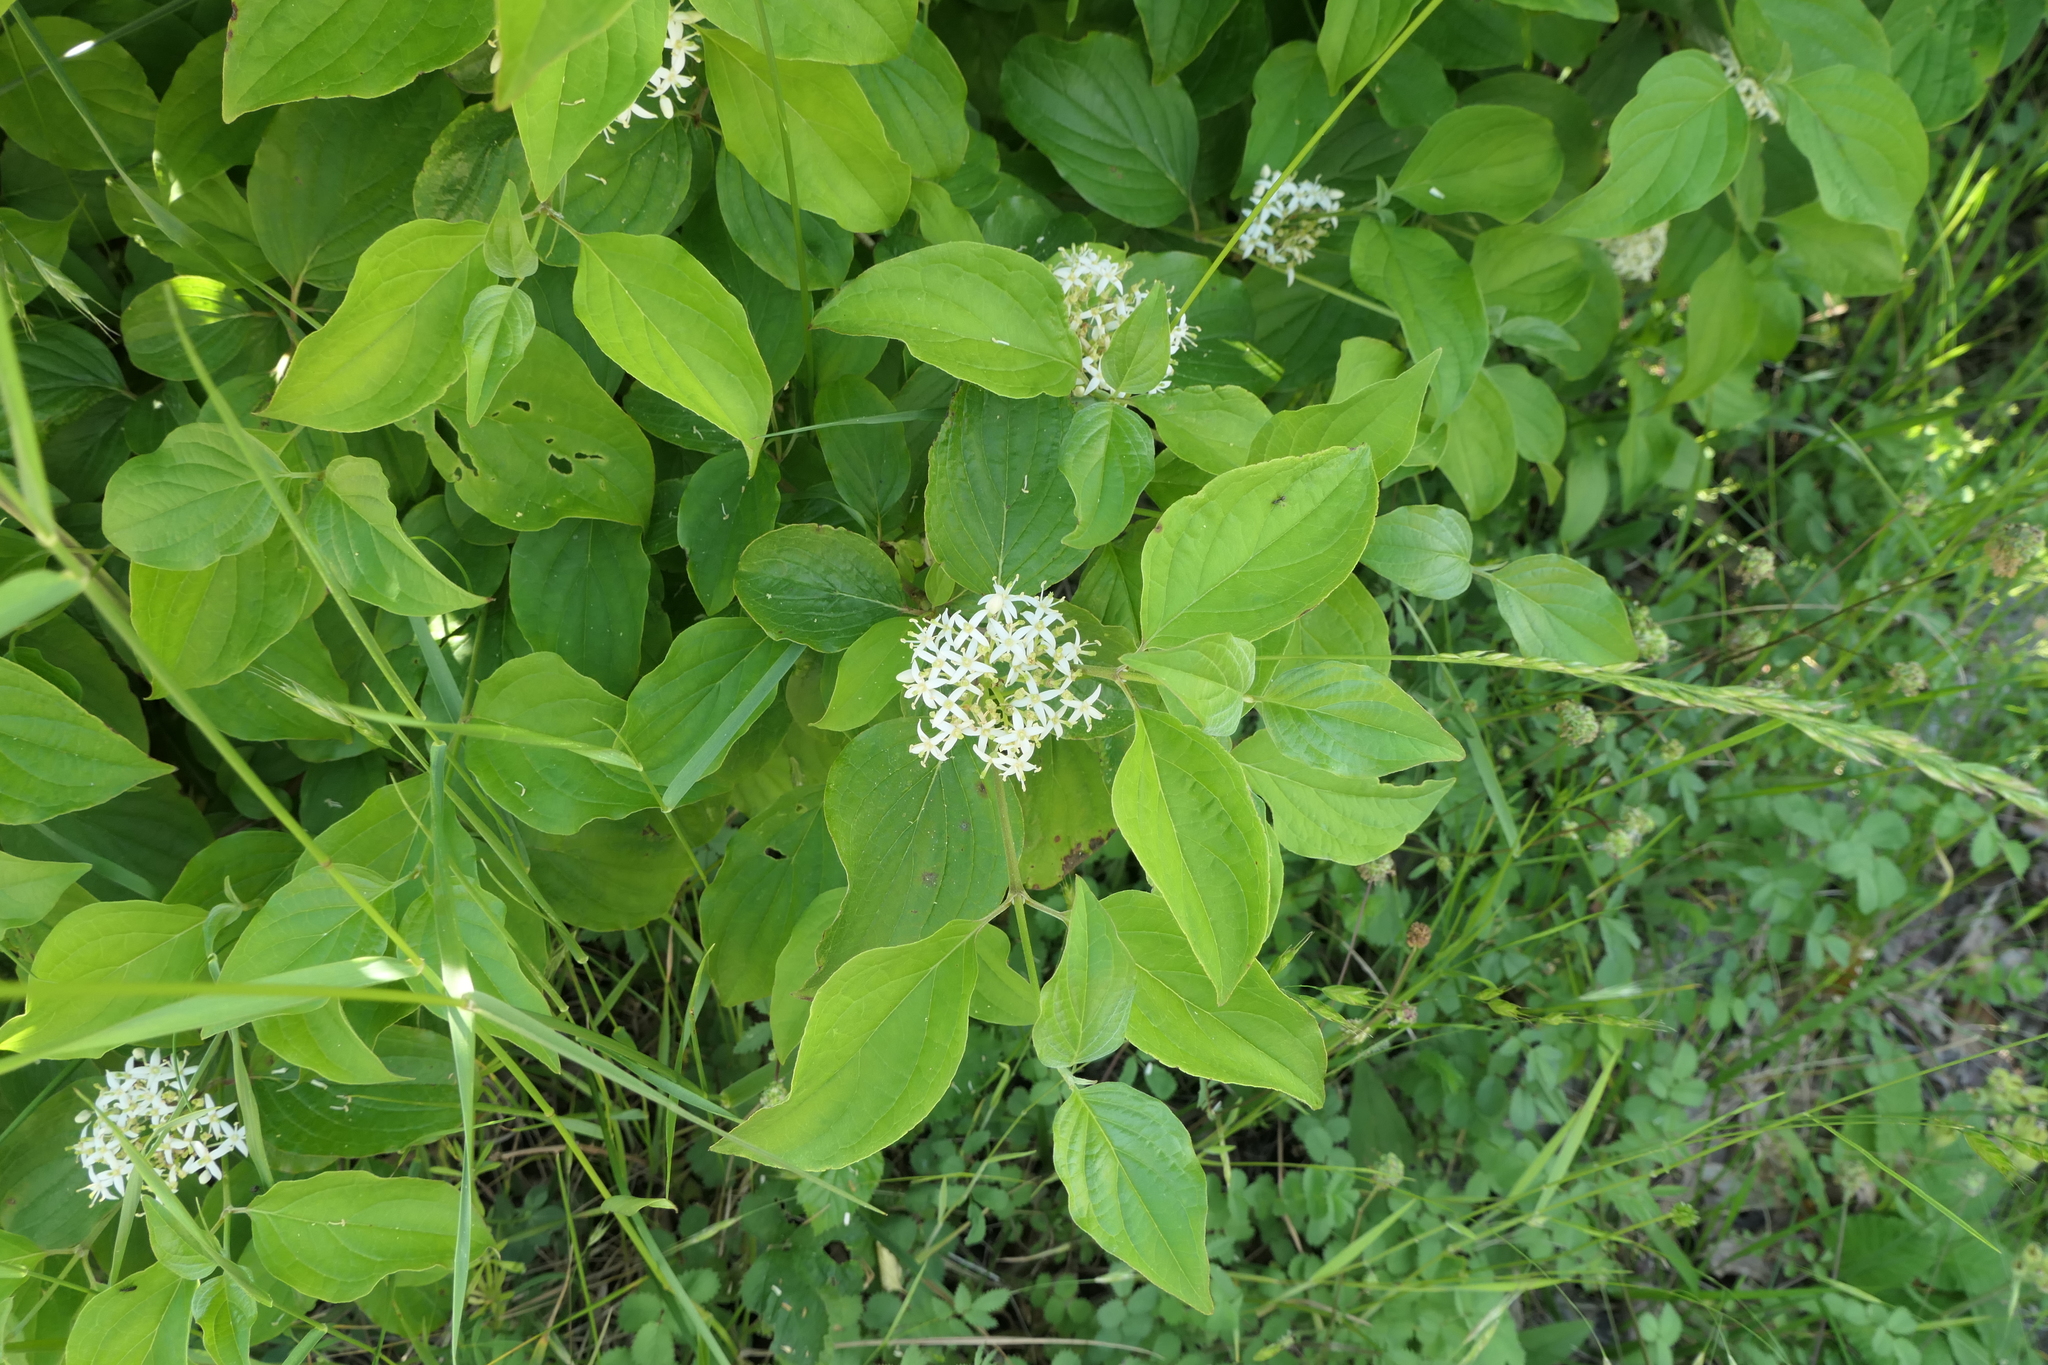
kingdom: Plantae
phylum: Tracheophyta
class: Magnoliopsida
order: Cornales
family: Cornaceae
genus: Cornus
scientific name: Cornus sanguinea
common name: Dogwood
